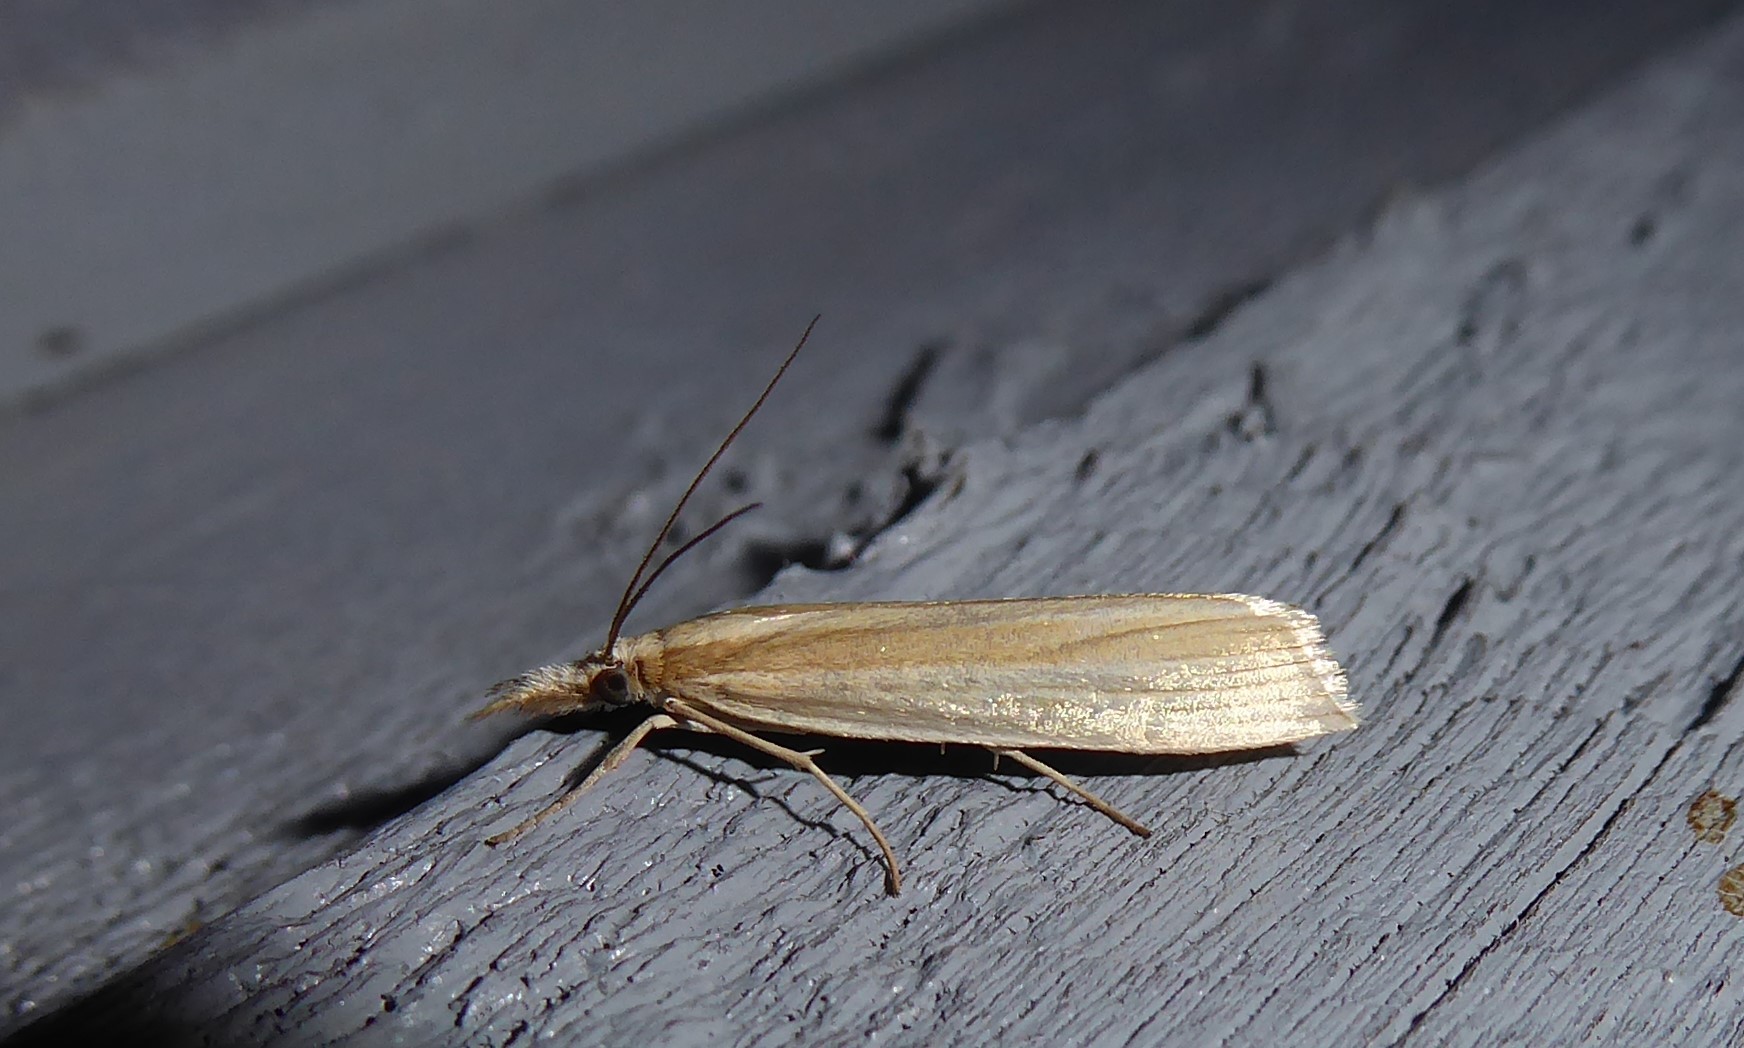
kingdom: Animalia
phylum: Arthropoda
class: Insecta
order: Lepidoptera
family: Crambidae
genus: Orocrambus
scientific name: Orocrambus ramosellus
